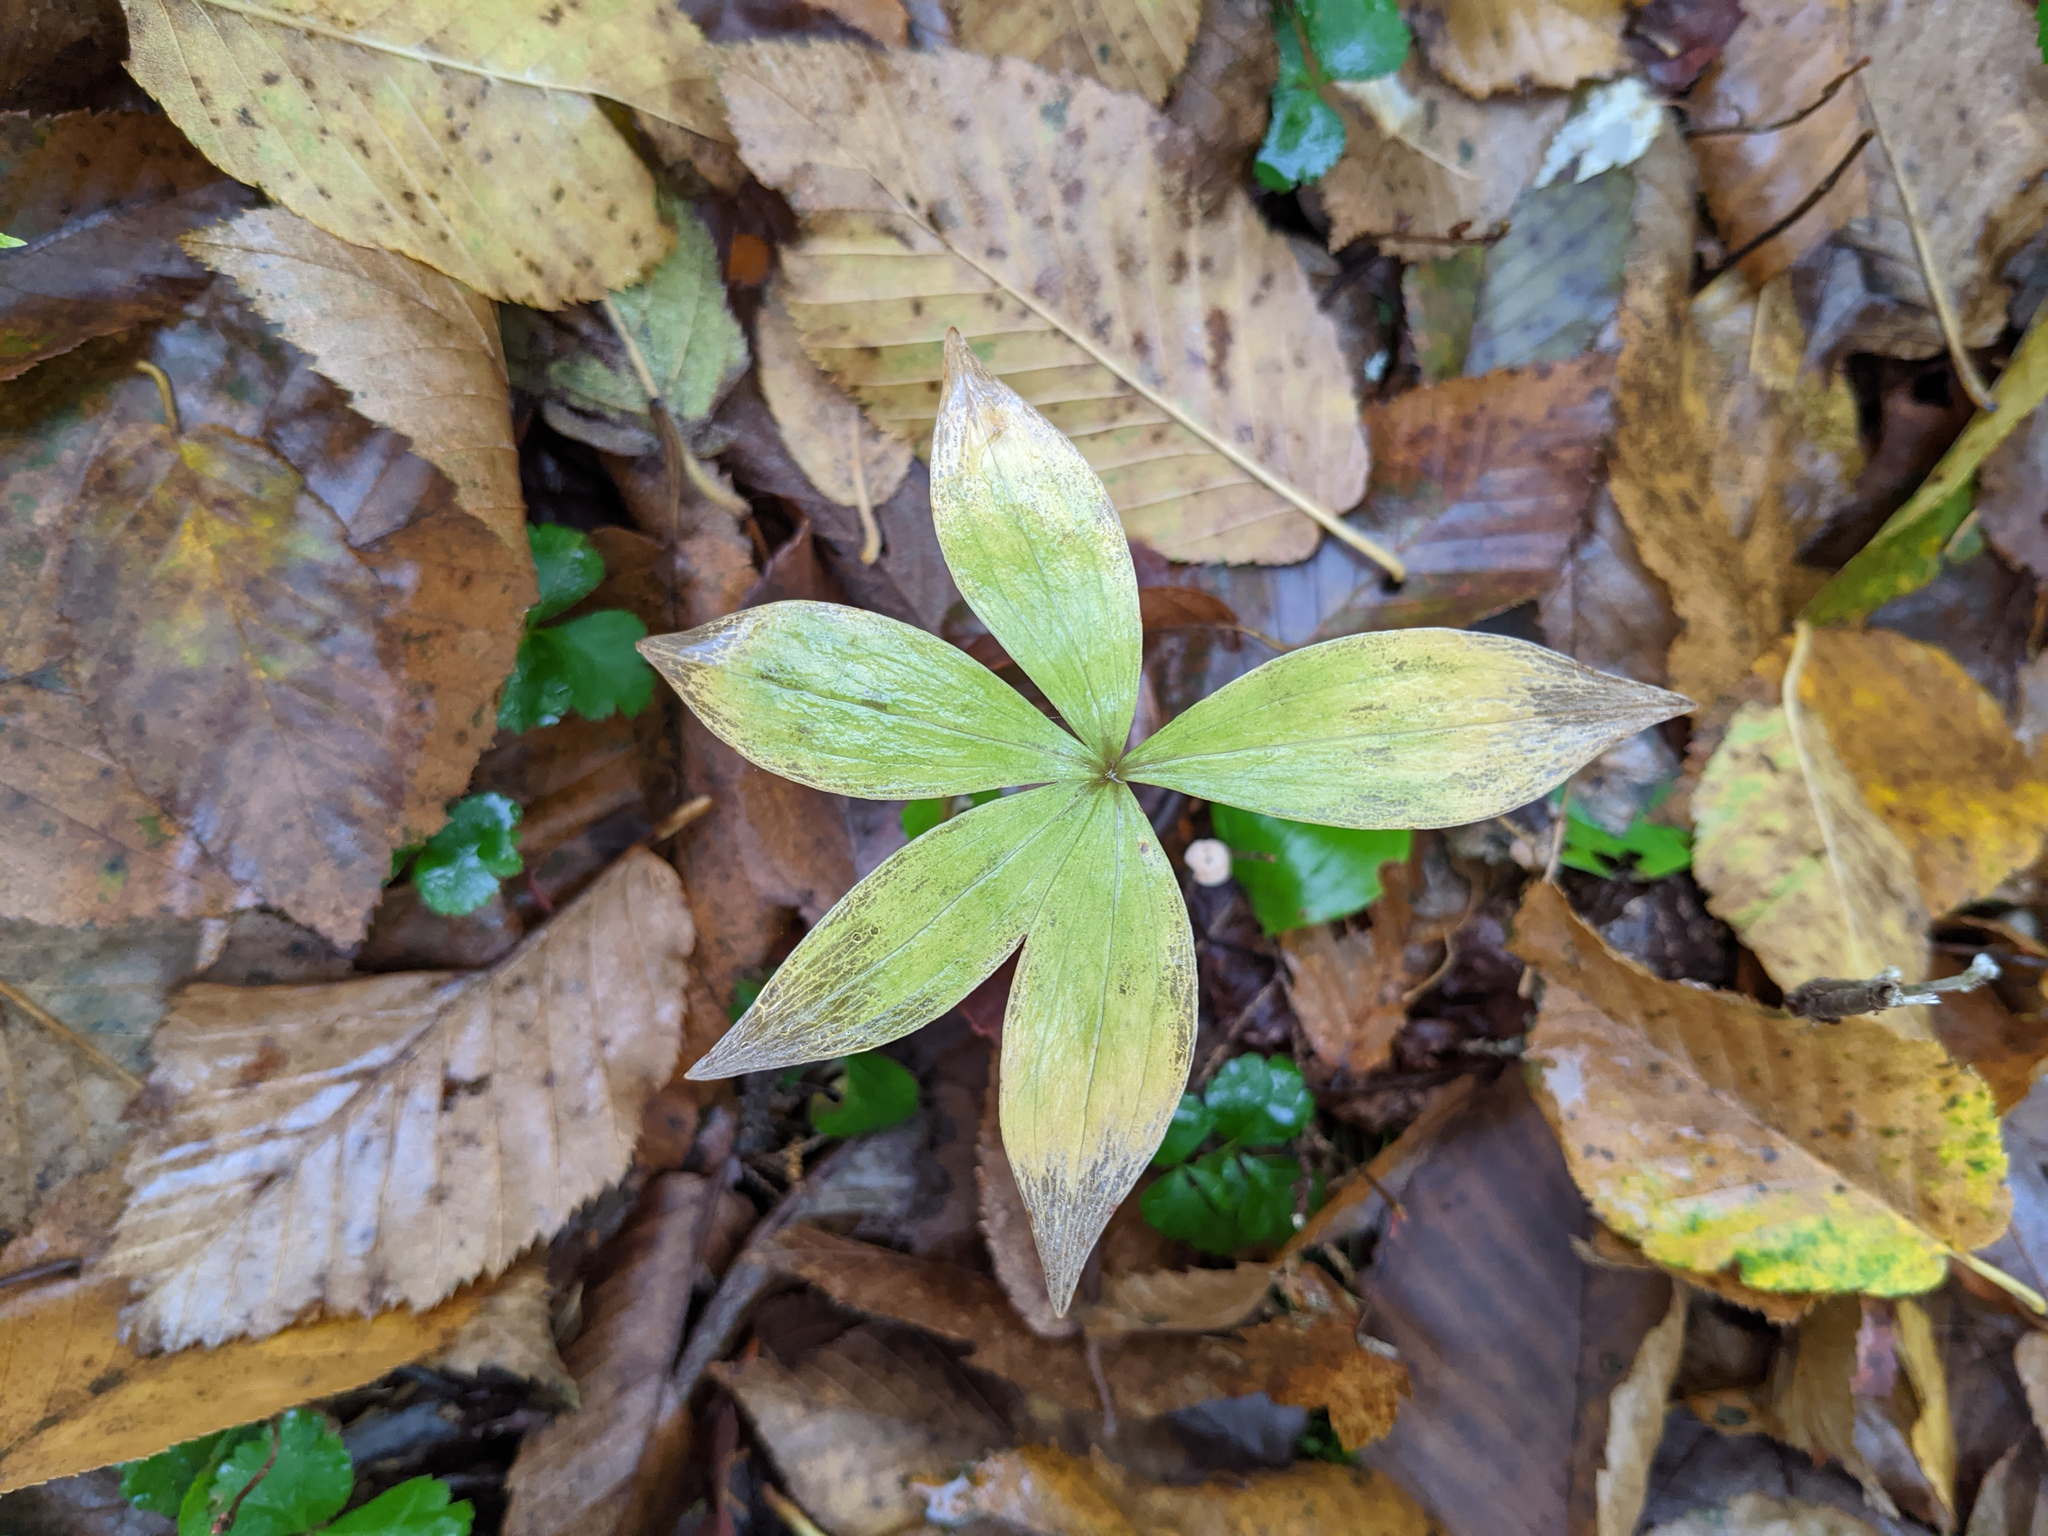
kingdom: Plantae
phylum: Tracheophyta
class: Liliopsida
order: Liliales
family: Liliaceae
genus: Medeola
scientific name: Medeola virginiana
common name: Indian cucumber-root
